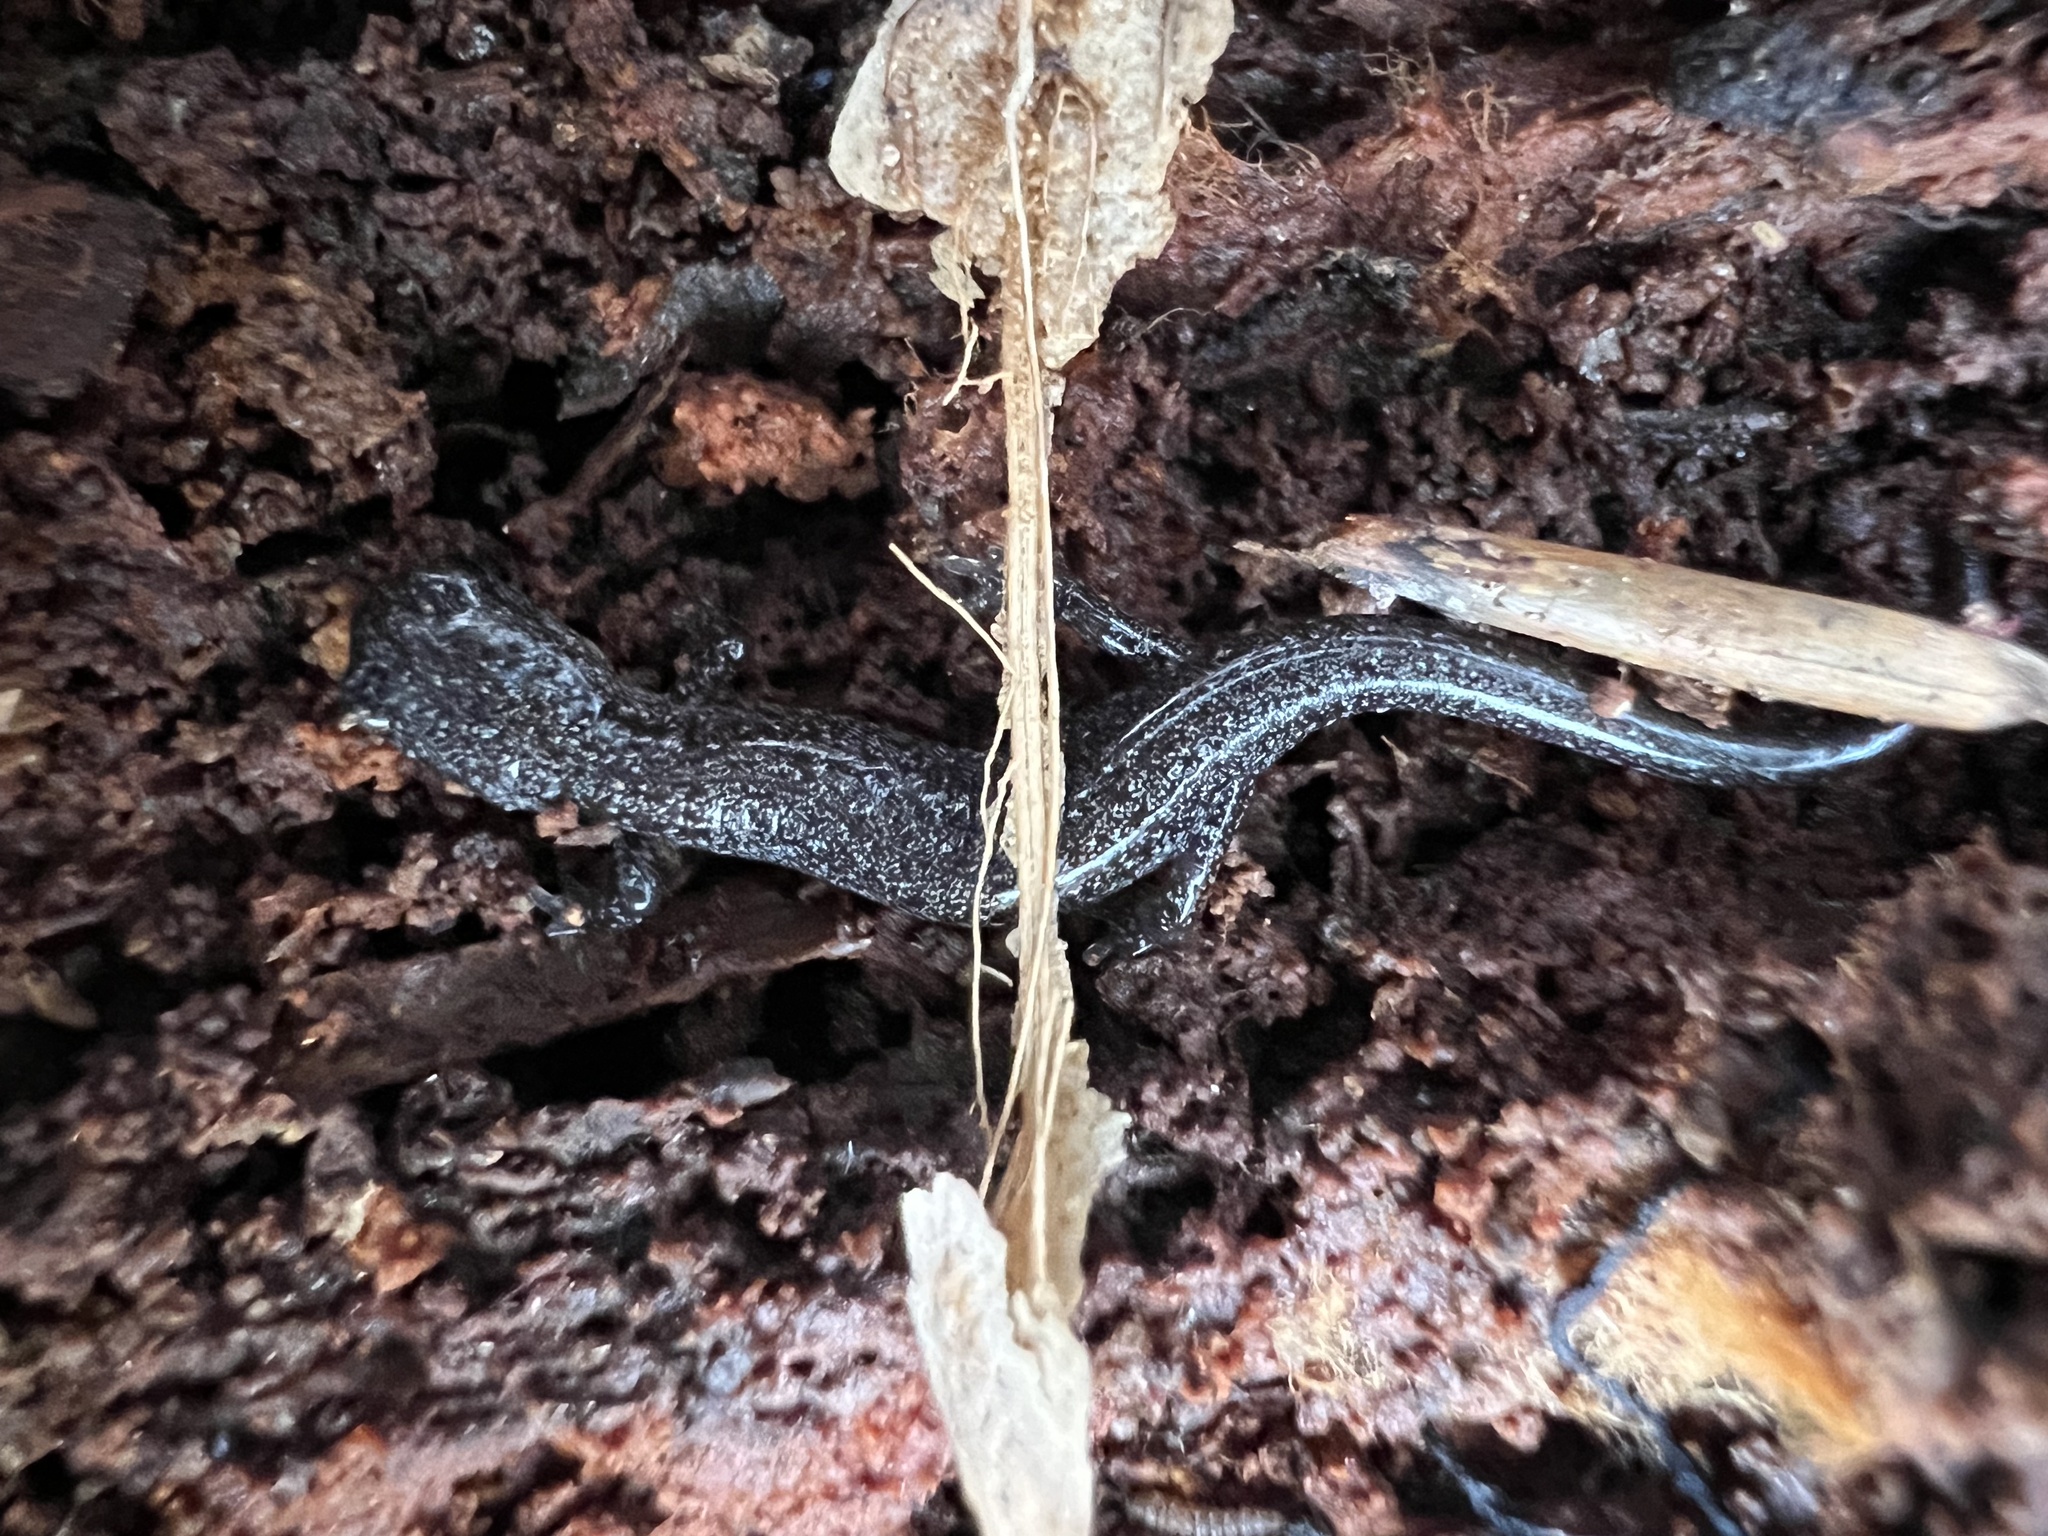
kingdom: Animalia
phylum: Chordata
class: Amphibia
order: Caudata
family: Plethodontidae
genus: Plethodon
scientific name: Plethodon cinereus
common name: Redback salamander
